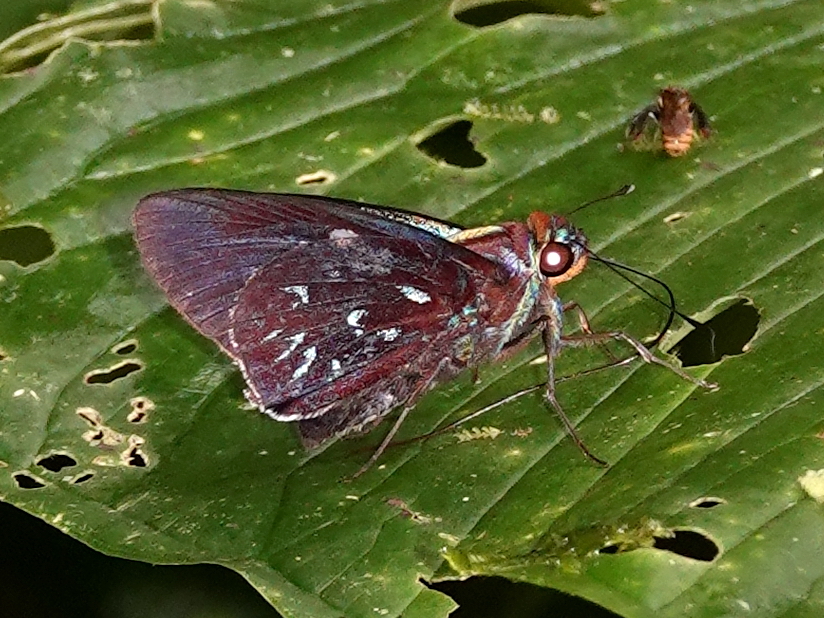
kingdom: Animalia
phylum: Arthropoda
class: Insecta
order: Lepidoptera
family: Hesperiidae
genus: Thracides
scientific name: Thracides smaragdulus
